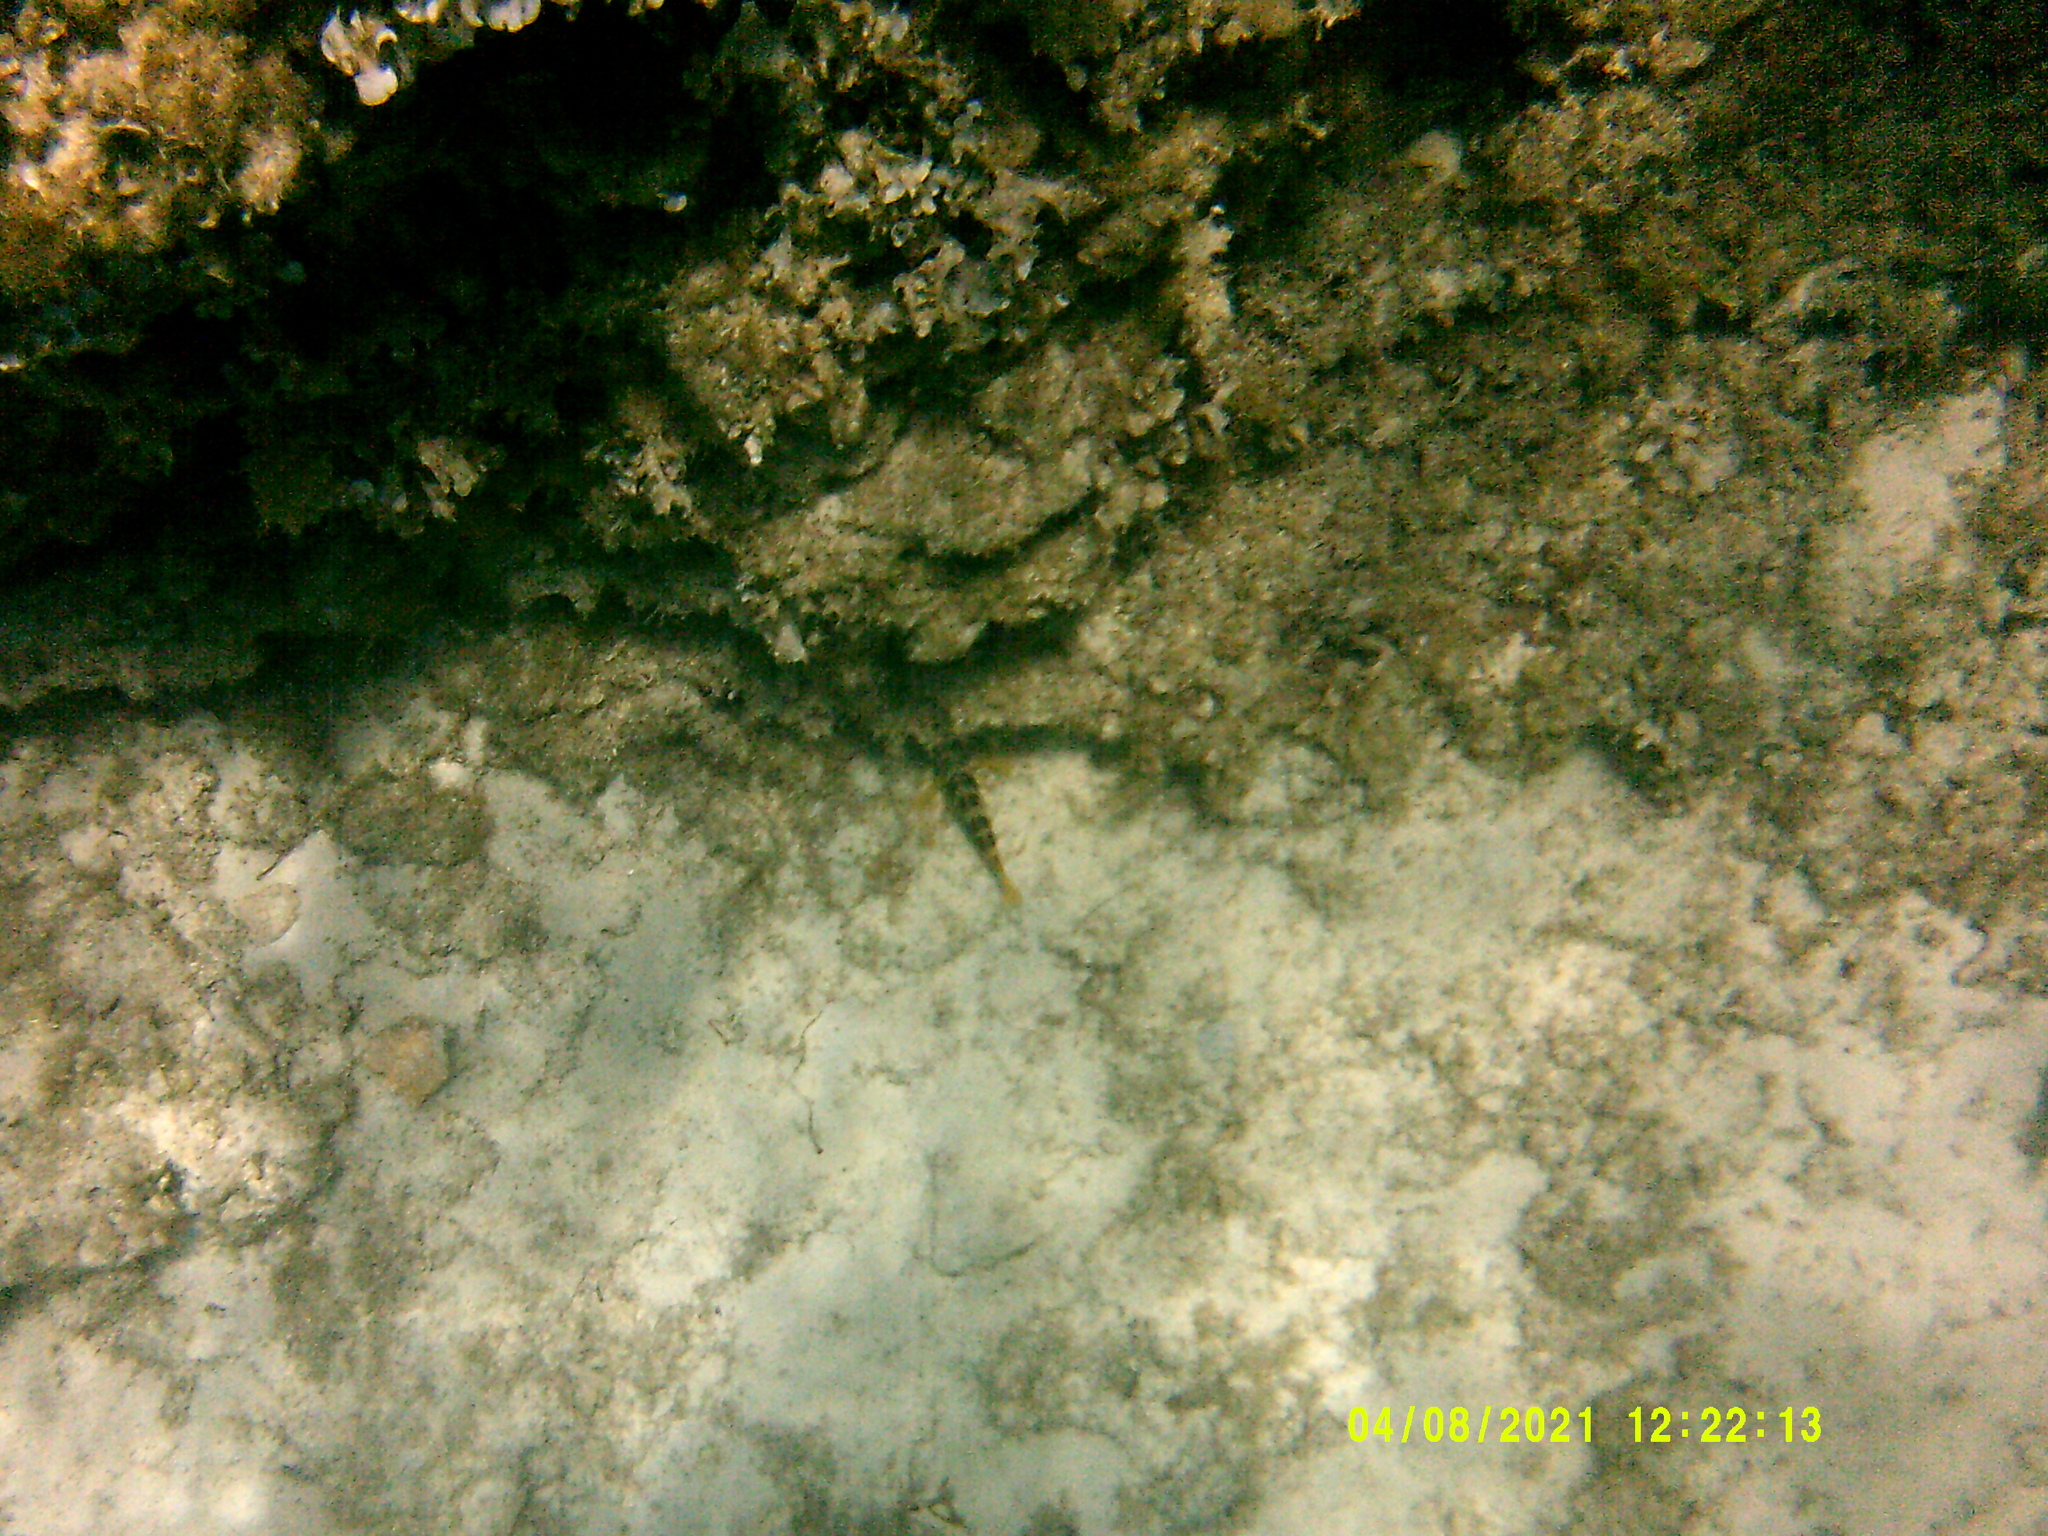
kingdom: Animalia
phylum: Chordata
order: Perciformes
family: Serranidae
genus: Serranus
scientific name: Serranus scriba
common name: Painted comber
